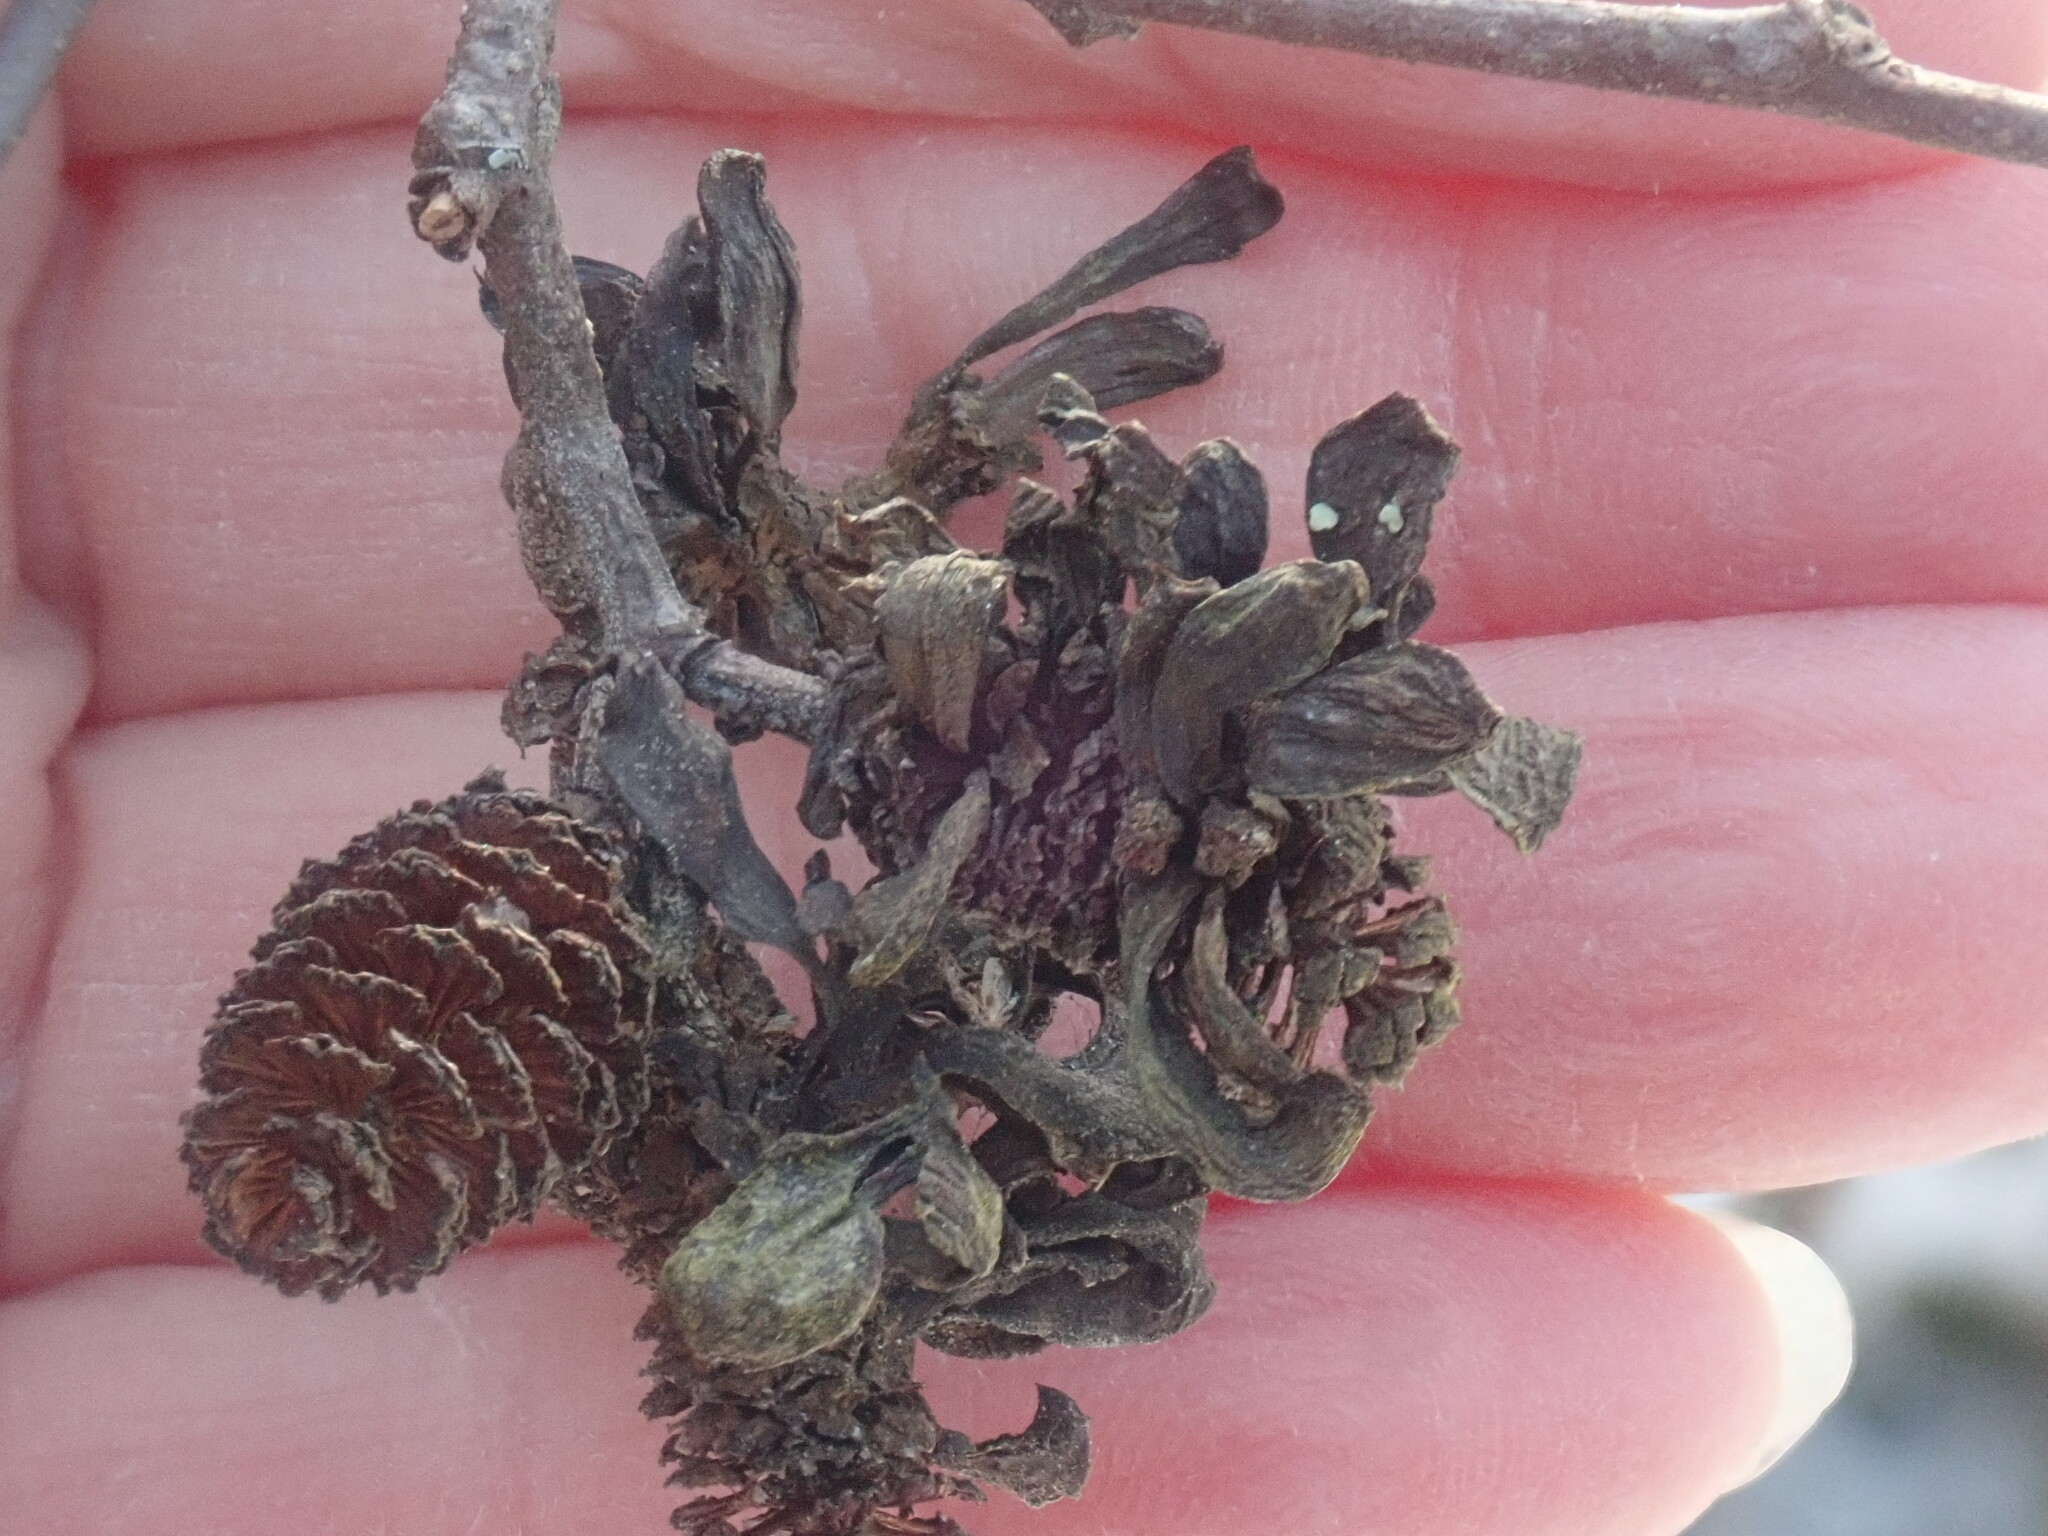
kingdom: Fungi
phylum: Ascomycota
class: Taphrinomycetes
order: Taphrinales
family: Taphrinaceae
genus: Taphrina
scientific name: Taphrina robinsoniana
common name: Eastern american alder tongue gall fungus
